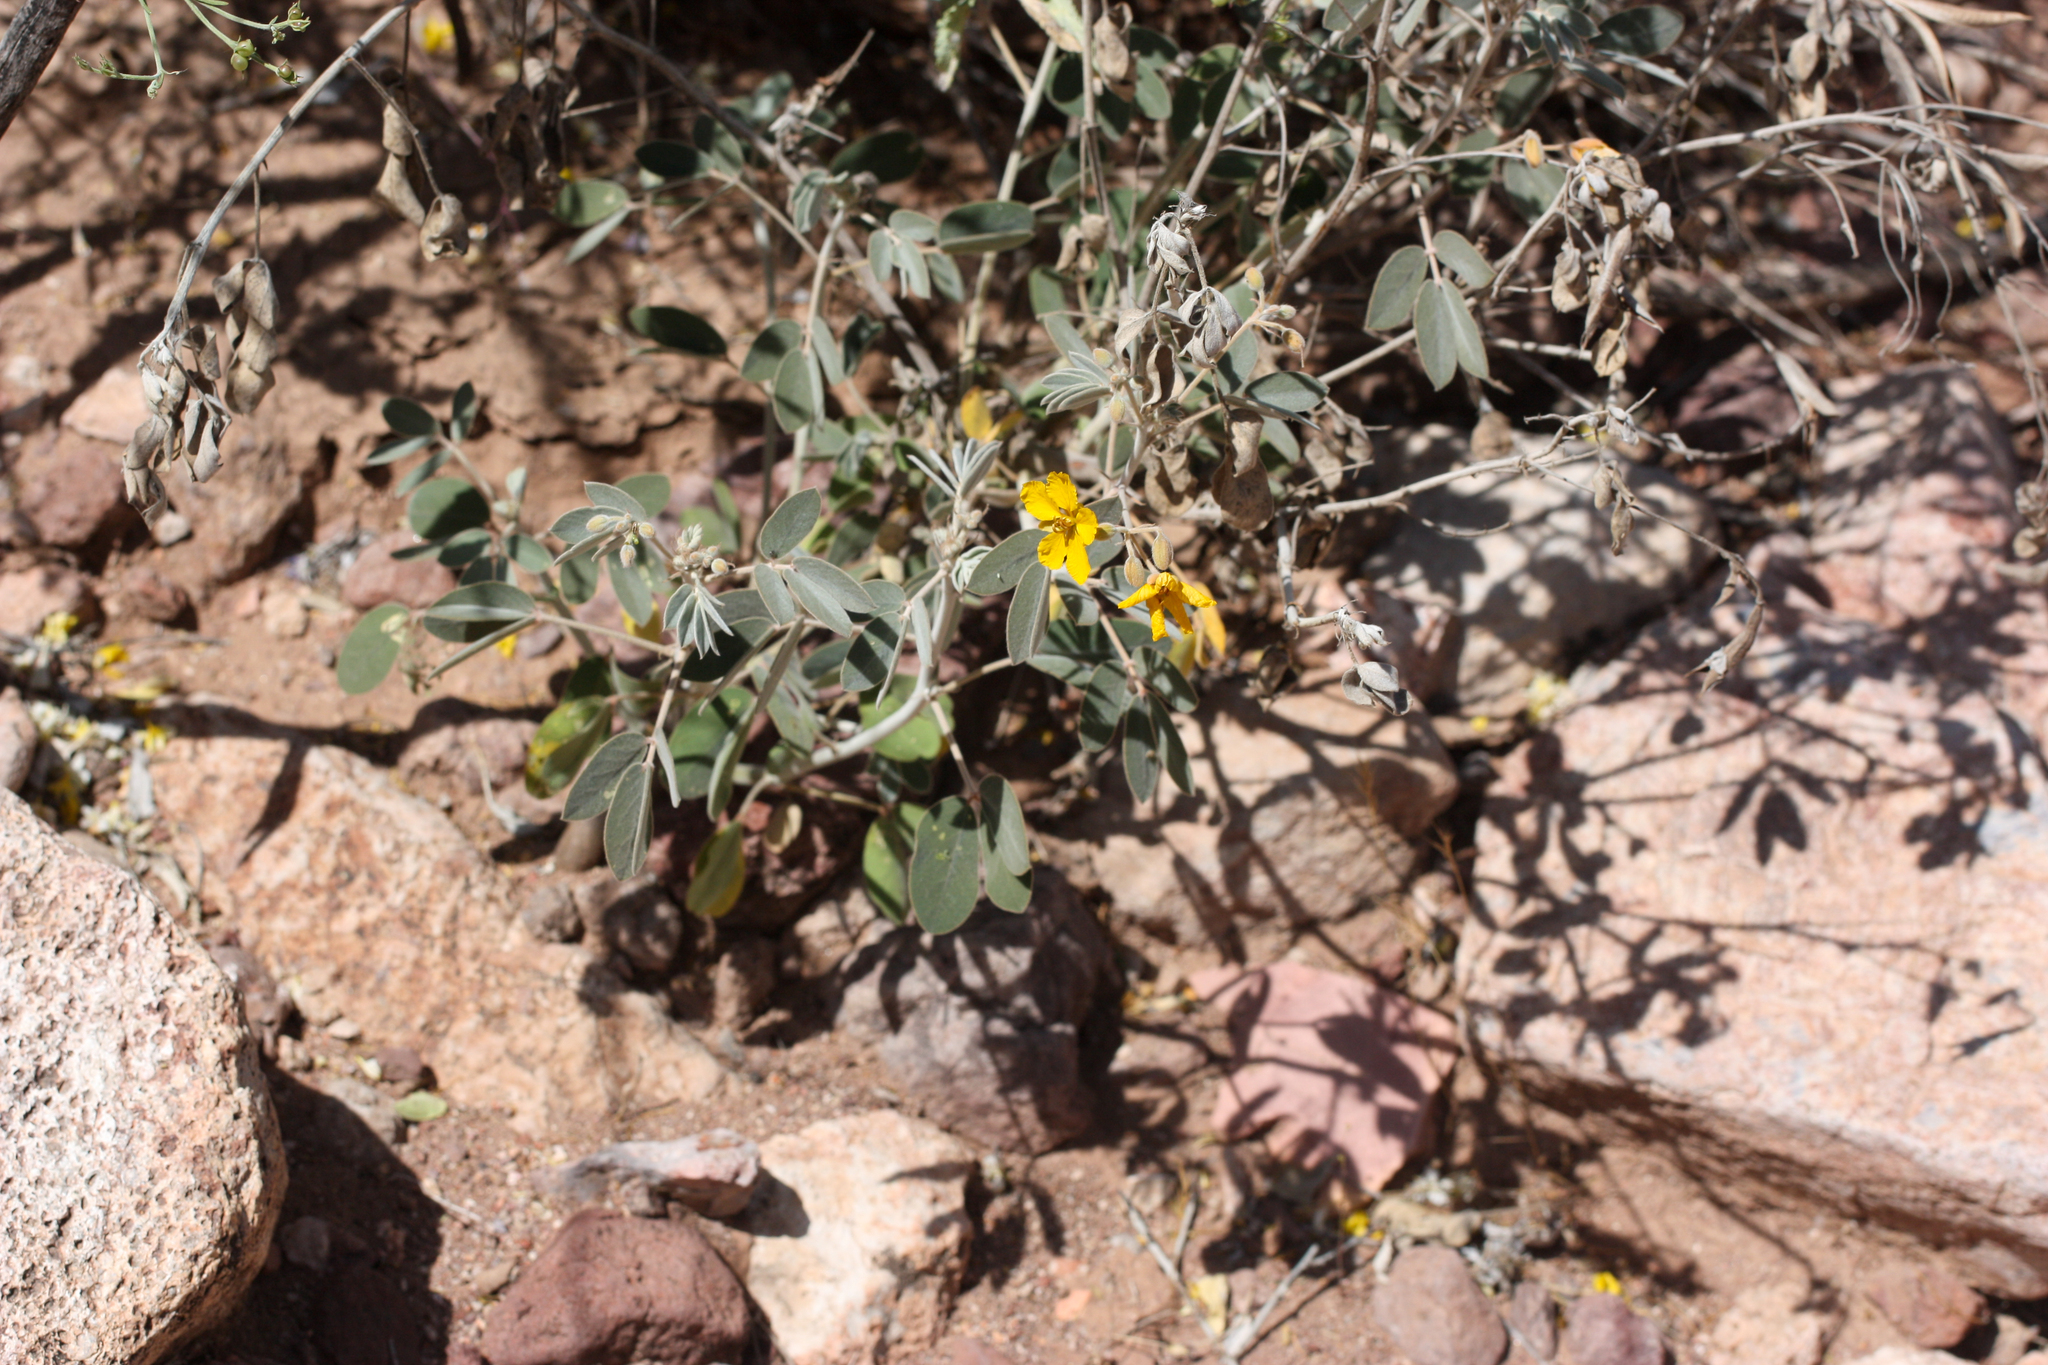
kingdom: Plantae
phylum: Tracheophyta
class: Magnoliopsida
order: Fabales
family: Fabaceae
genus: Senna
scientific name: Senna covesii
